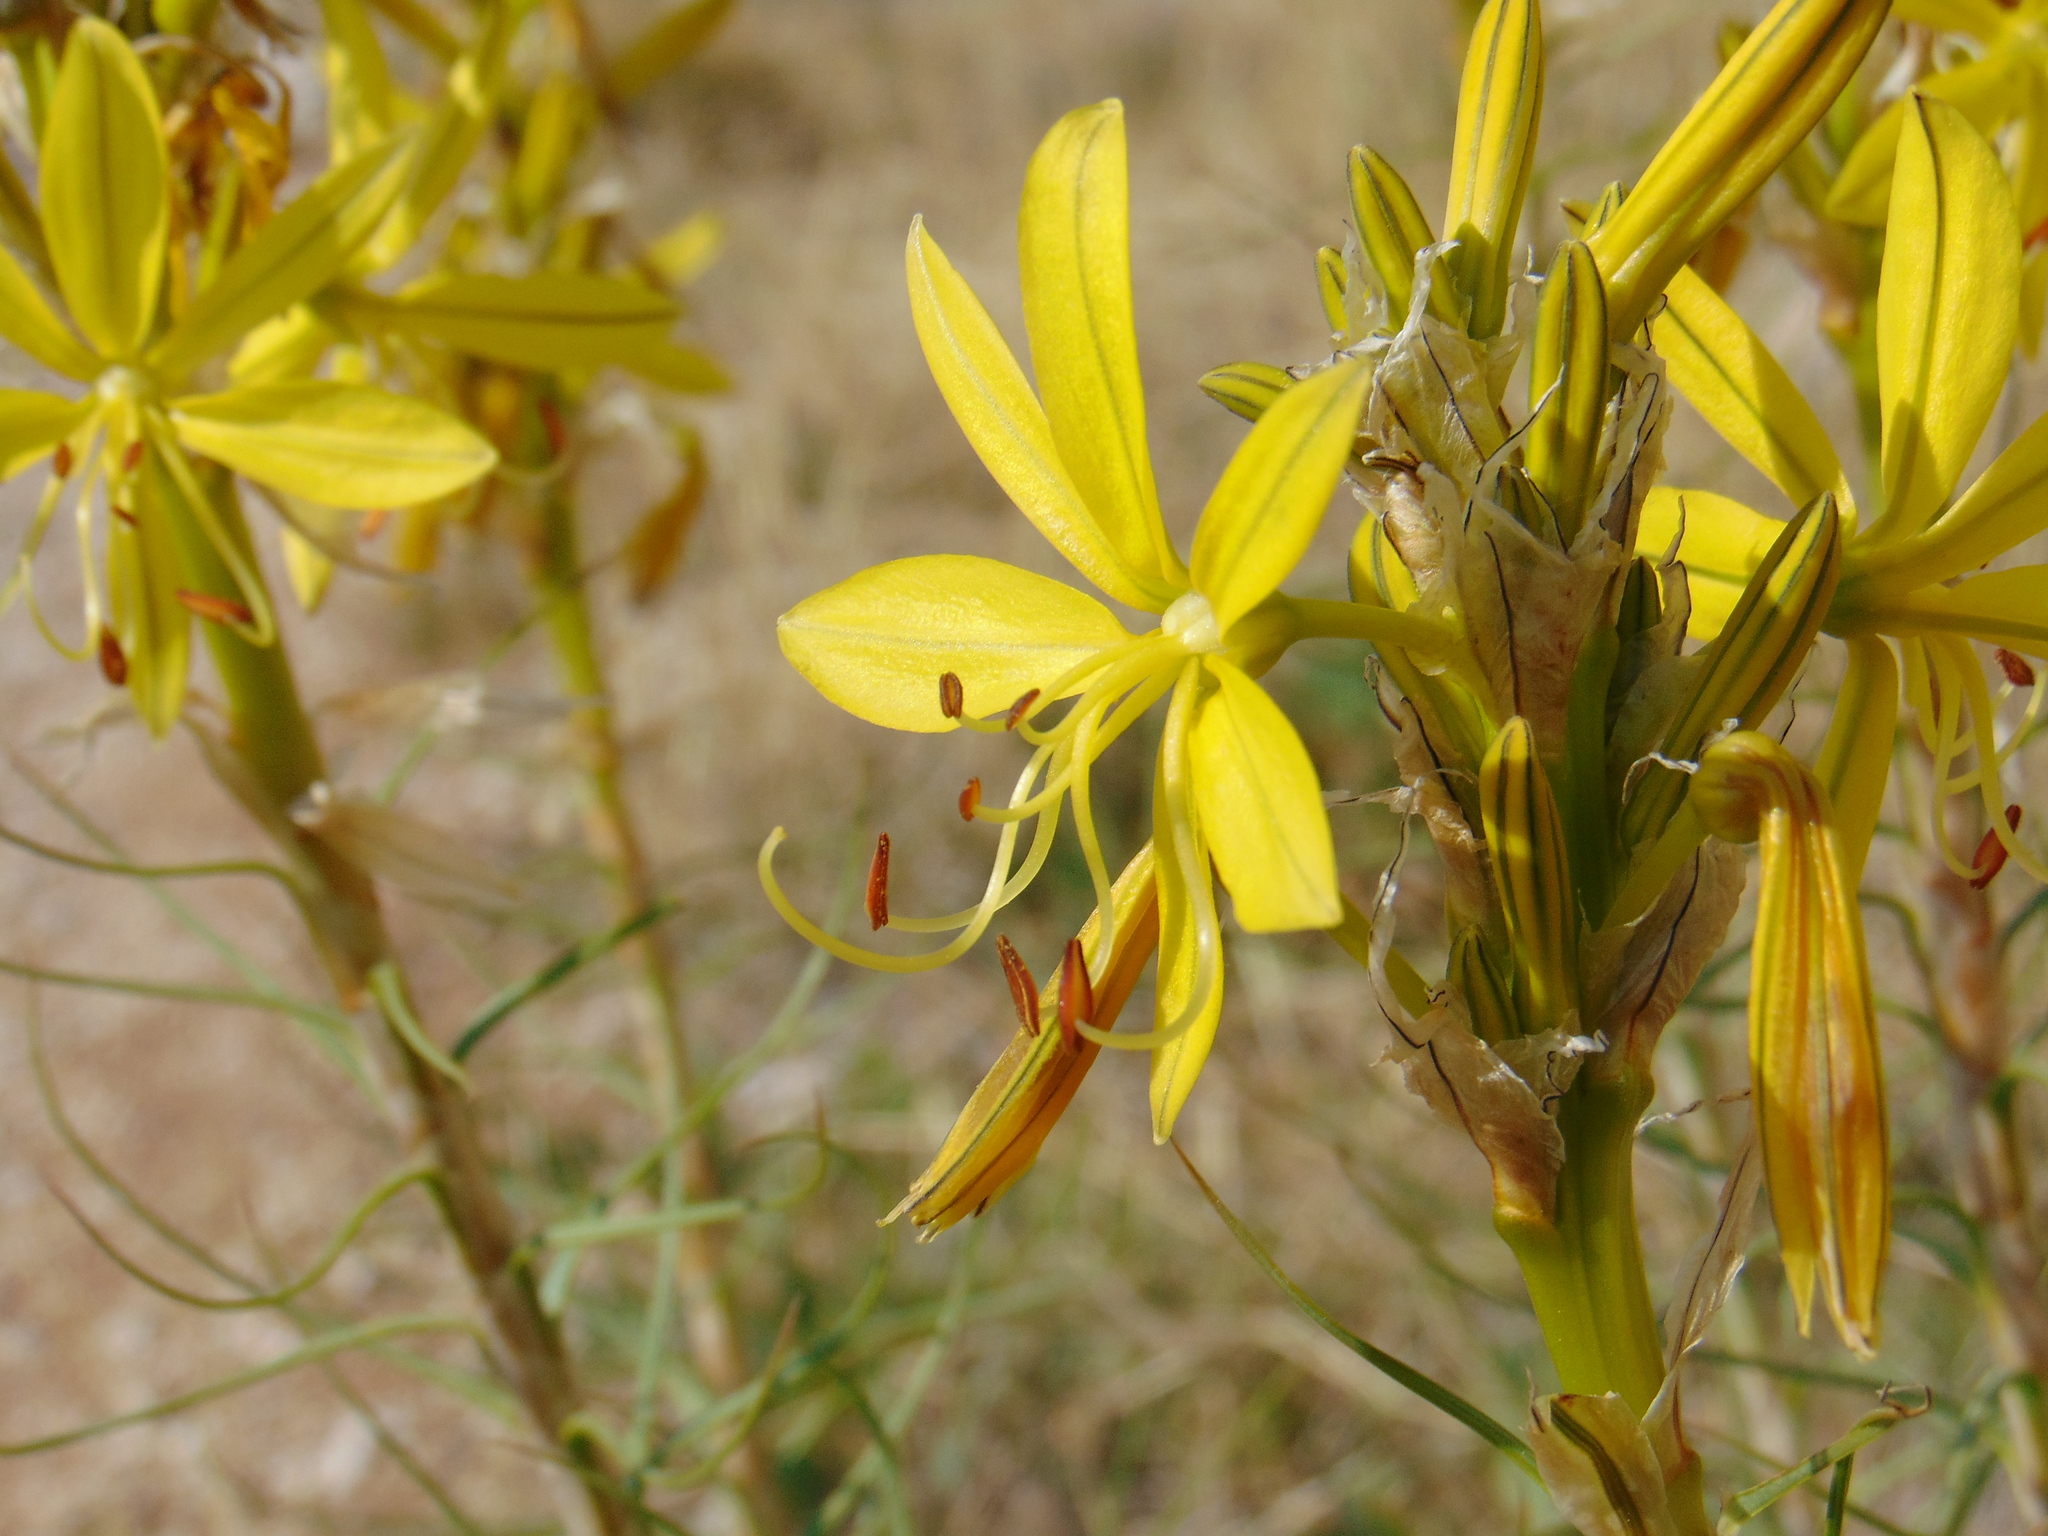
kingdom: Plantae
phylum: Tracheophyta
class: Liliopsida
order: Asparagales
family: Asphodelaceae
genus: Asphodeline
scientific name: Asphodeline lutea
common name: Yellow asphodel
